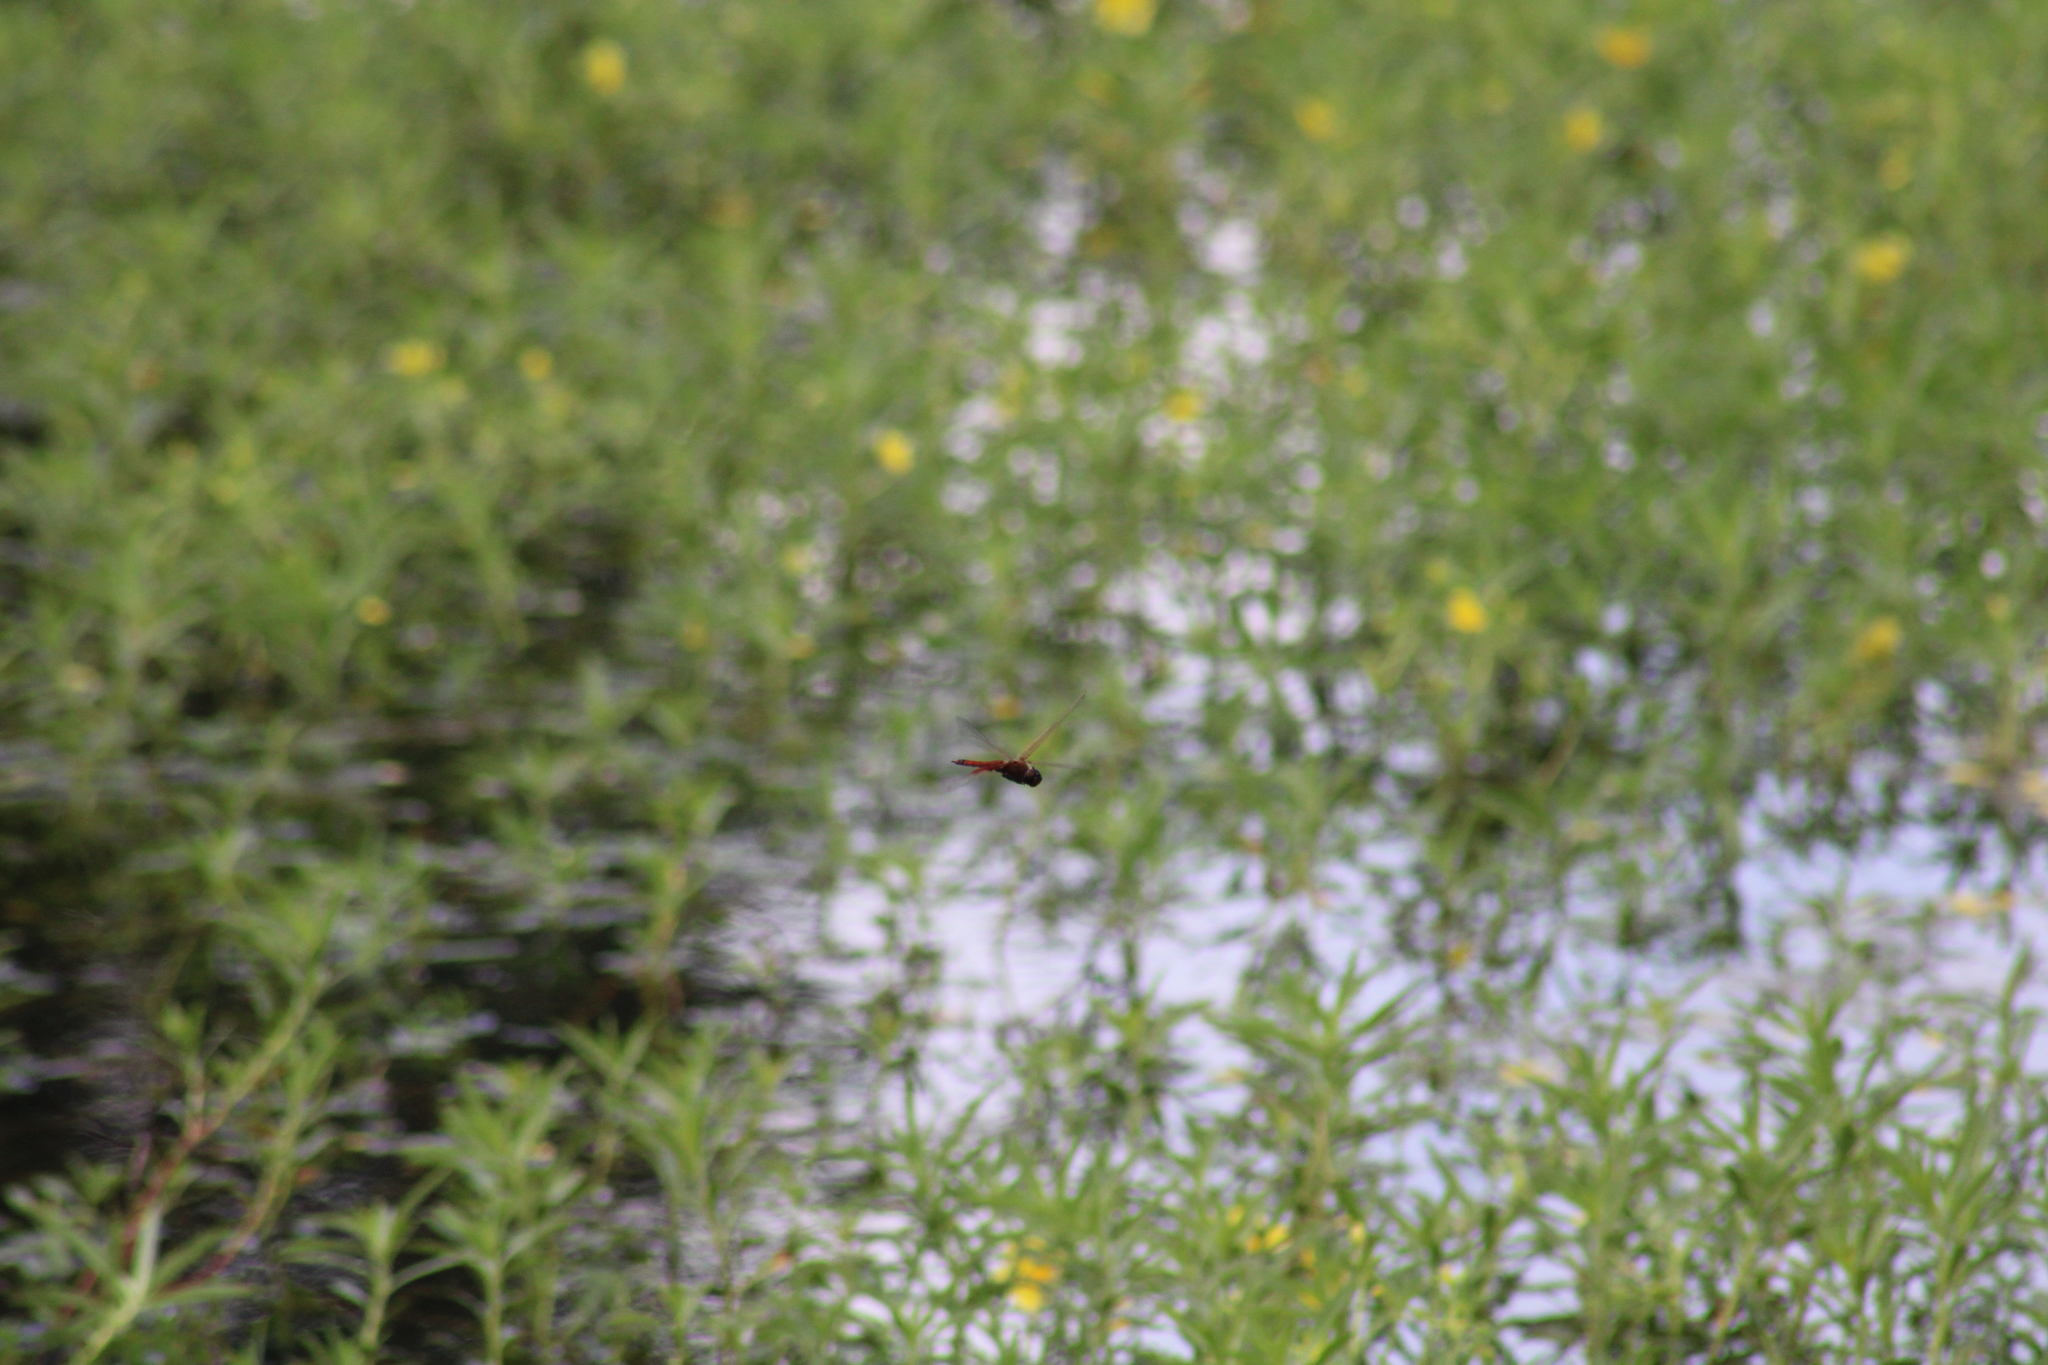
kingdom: Animalia
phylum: Arthropoda
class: Insecta
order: Odonata
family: Libellulidae
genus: Tramea
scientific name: Tramea carolina
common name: Carolina saddlebags
